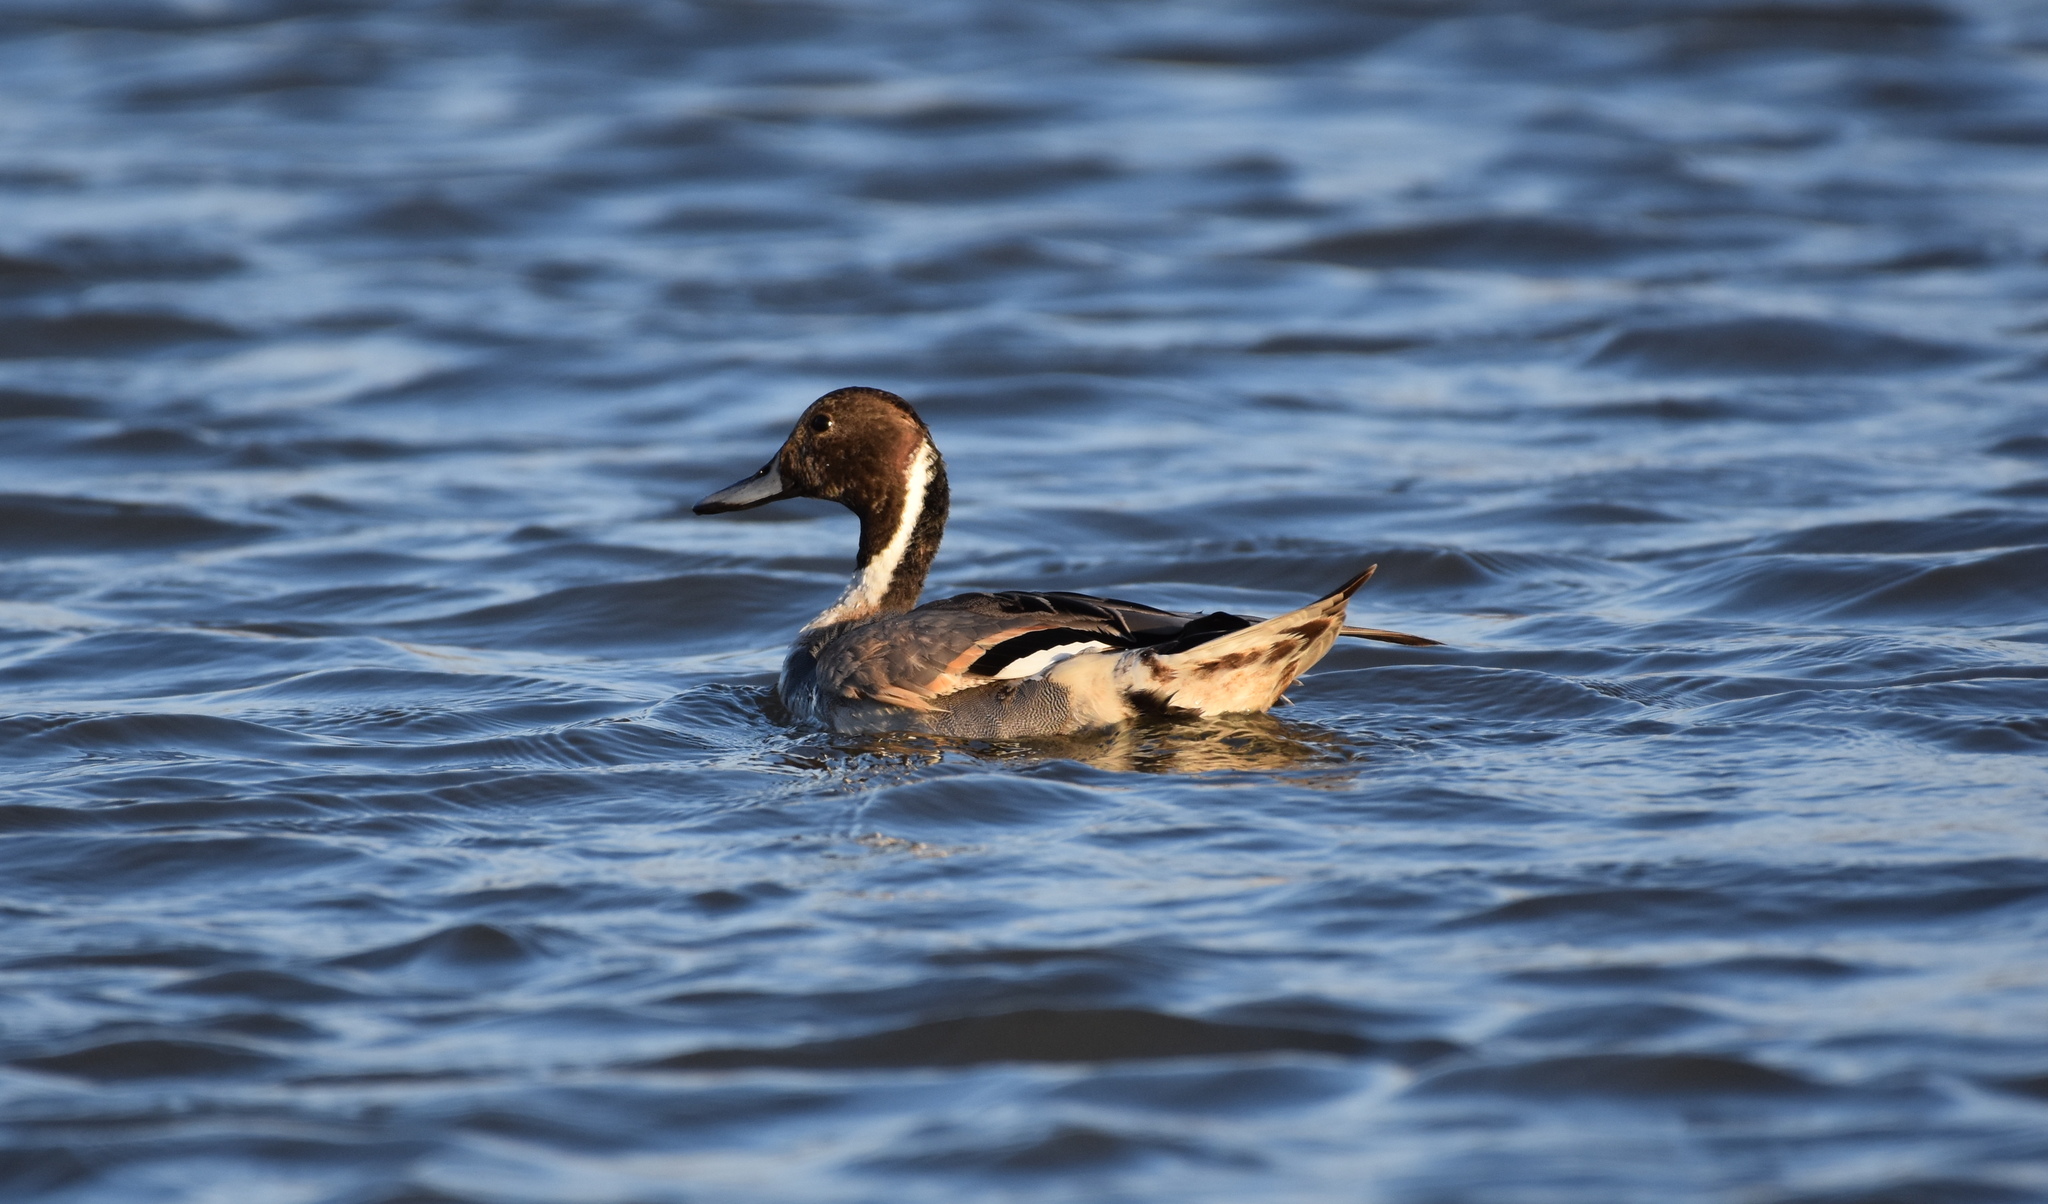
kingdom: Animalia
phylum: Chordata
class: Aves
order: Anseriformes
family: Anatidae
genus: Anas
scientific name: Anas acuta
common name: Northern pintail
